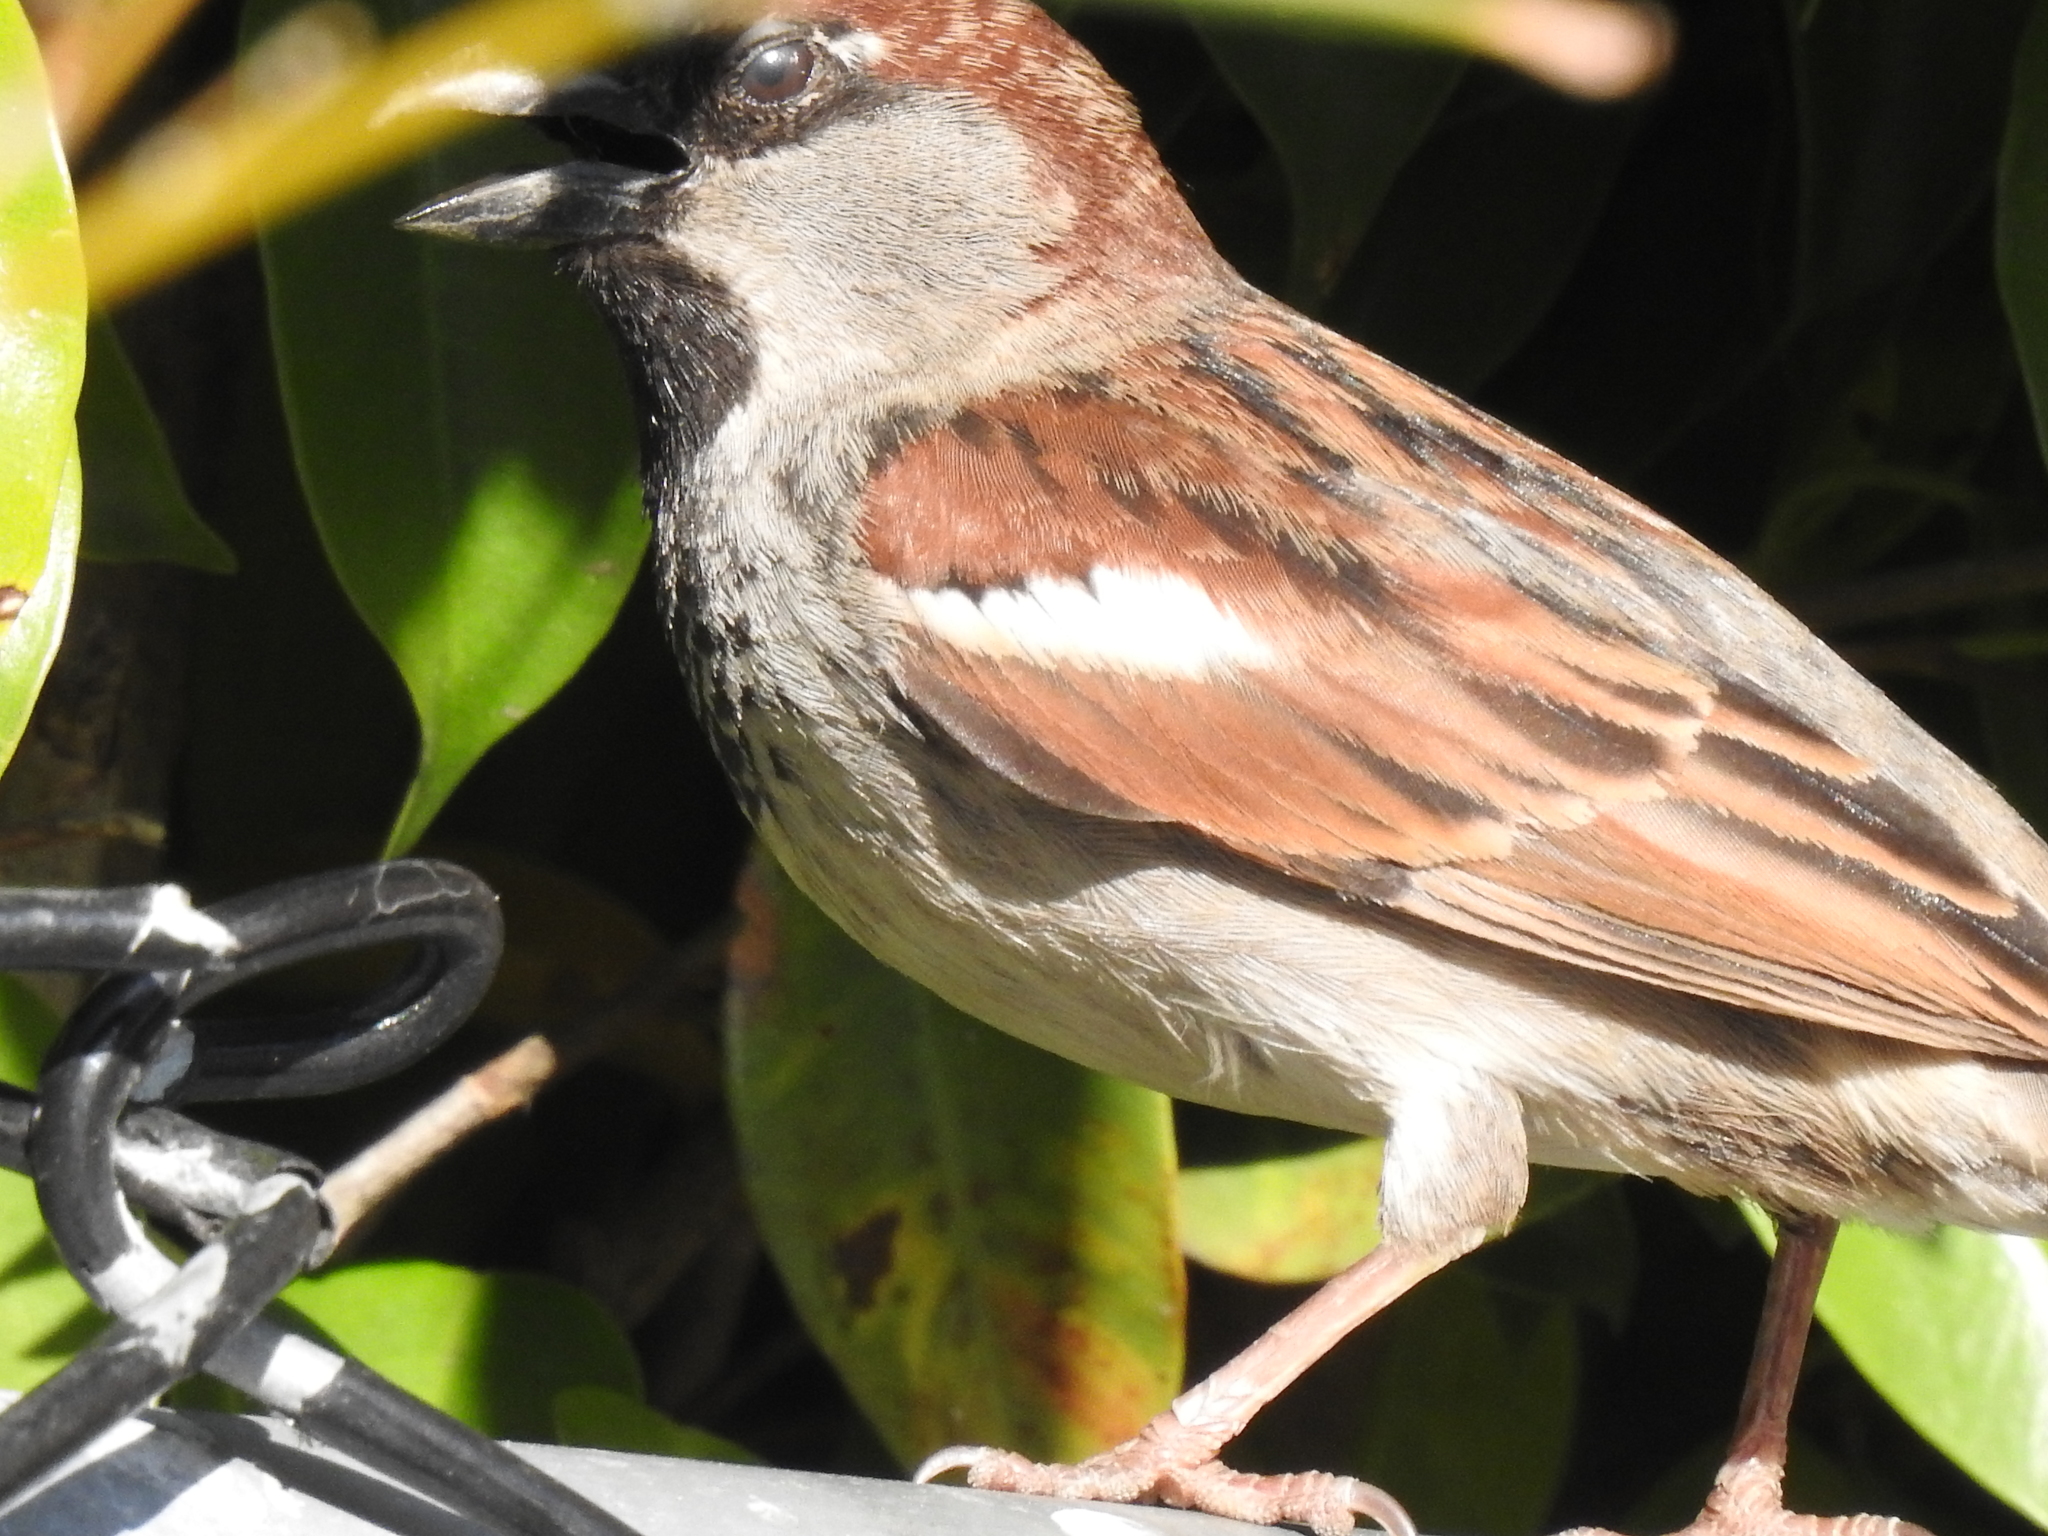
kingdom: Animalia
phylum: Chordata
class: Aves
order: Passeriformes
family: Passeridae
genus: Passer
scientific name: Passer domesticus
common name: House sparrow
